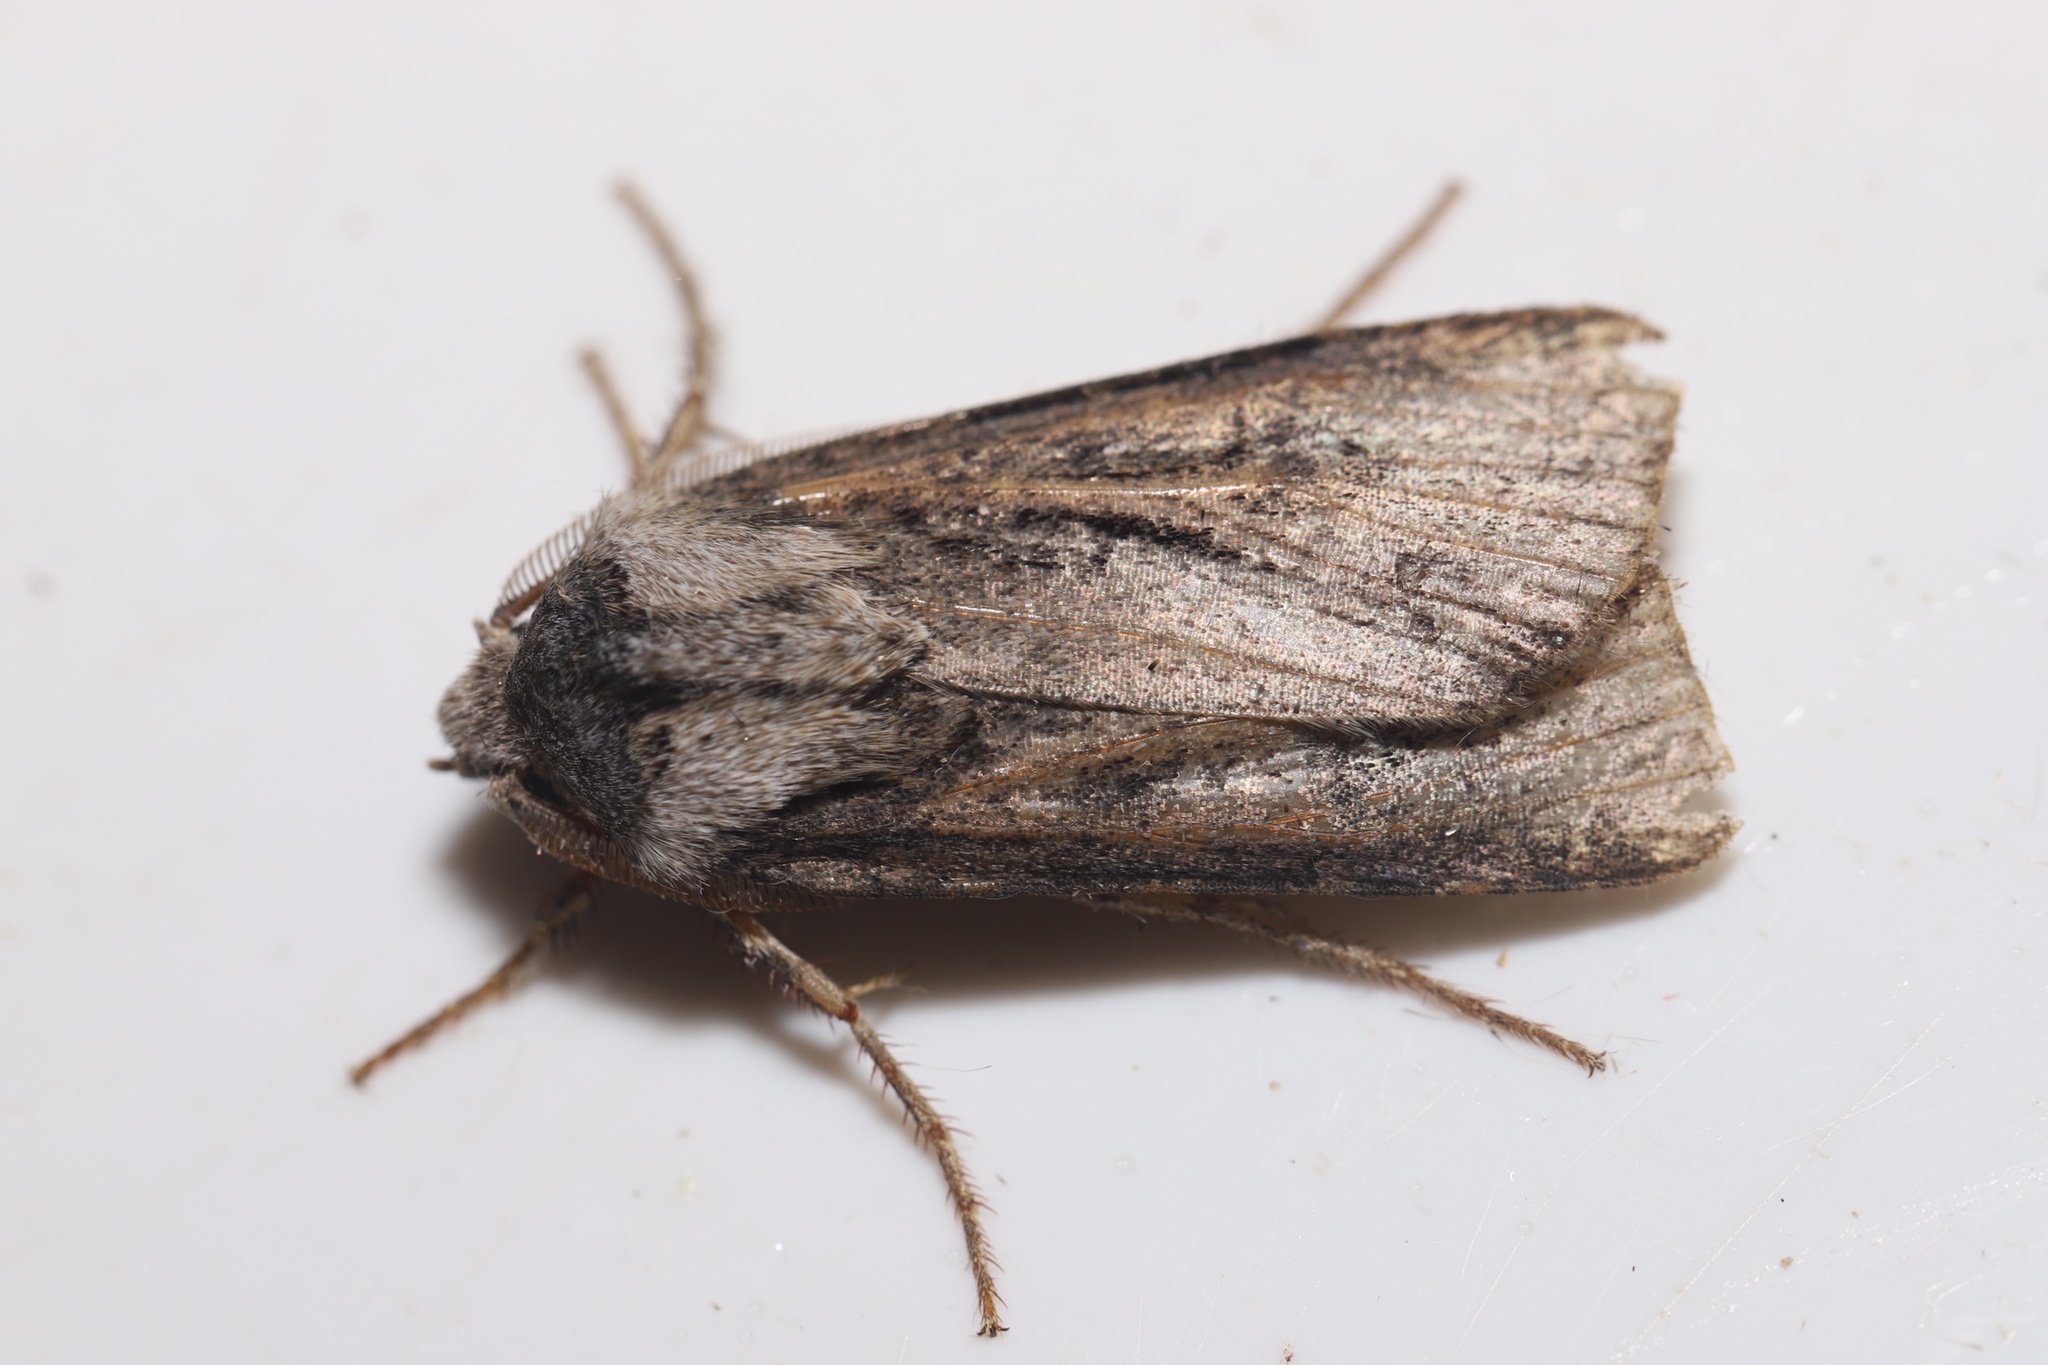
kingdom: Animalia
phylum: Arthropoda
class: Insecta
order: Lepidoptera
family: Noctuidae
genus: Agrotis
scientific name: Agrotis venerabilis
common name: Venerable dart
